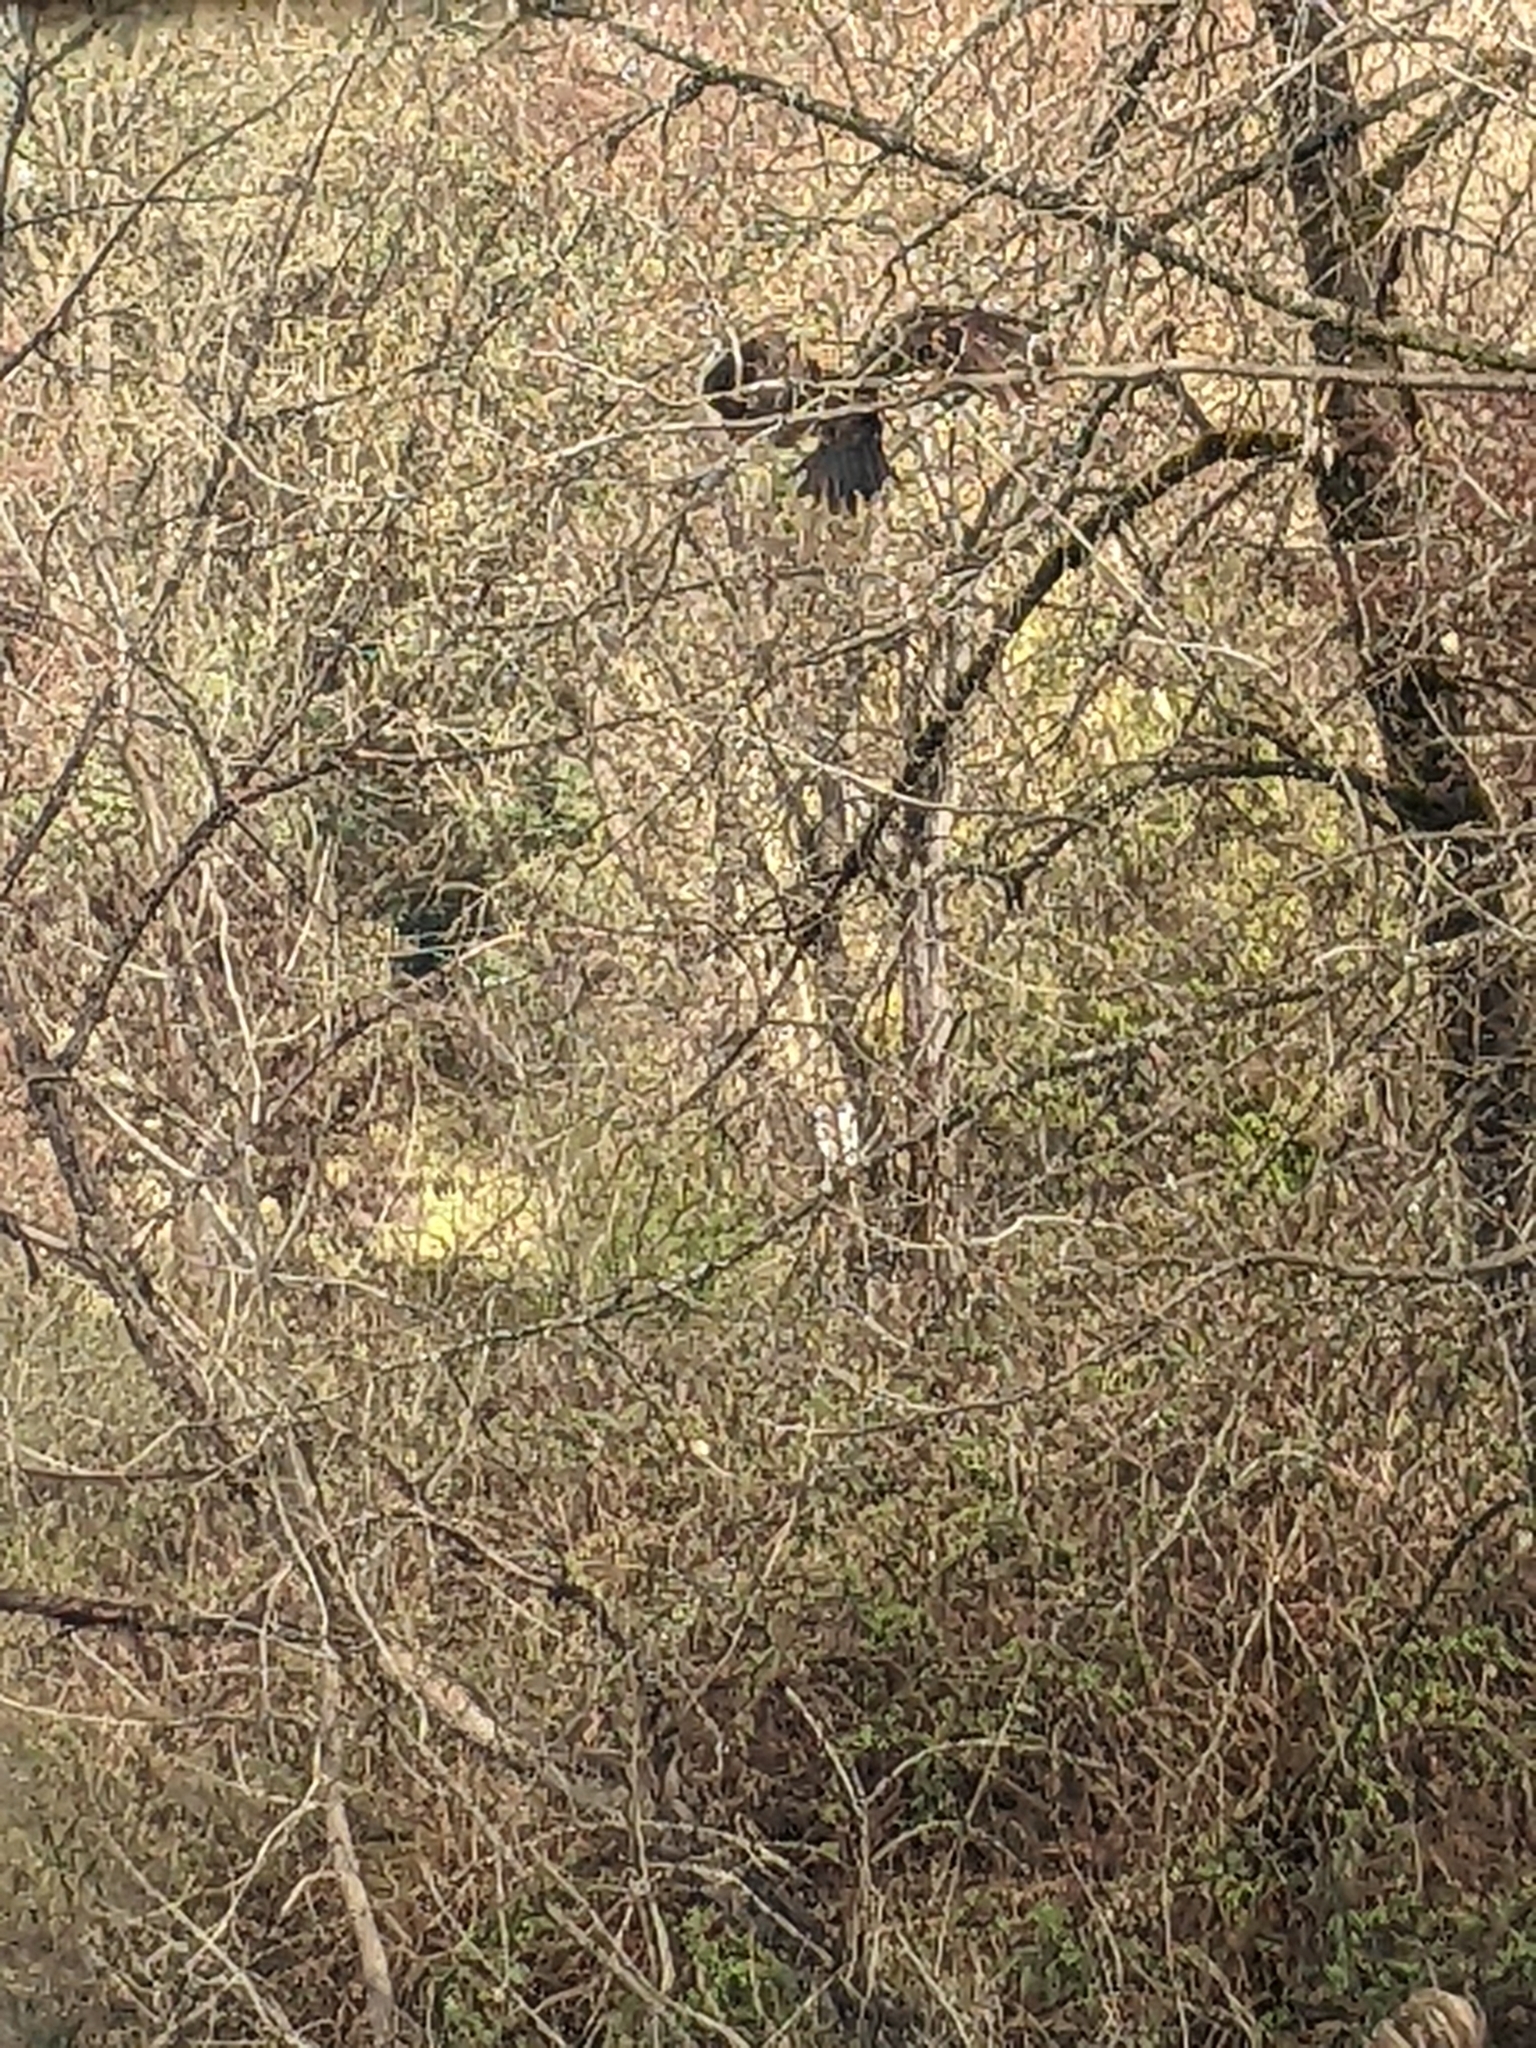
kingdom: Animalia
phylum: Chordata
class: Aves
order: Accipitriformes
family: Cathartidae
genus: Cathartes
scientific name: Cathartes aura
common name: Turkey vulture
